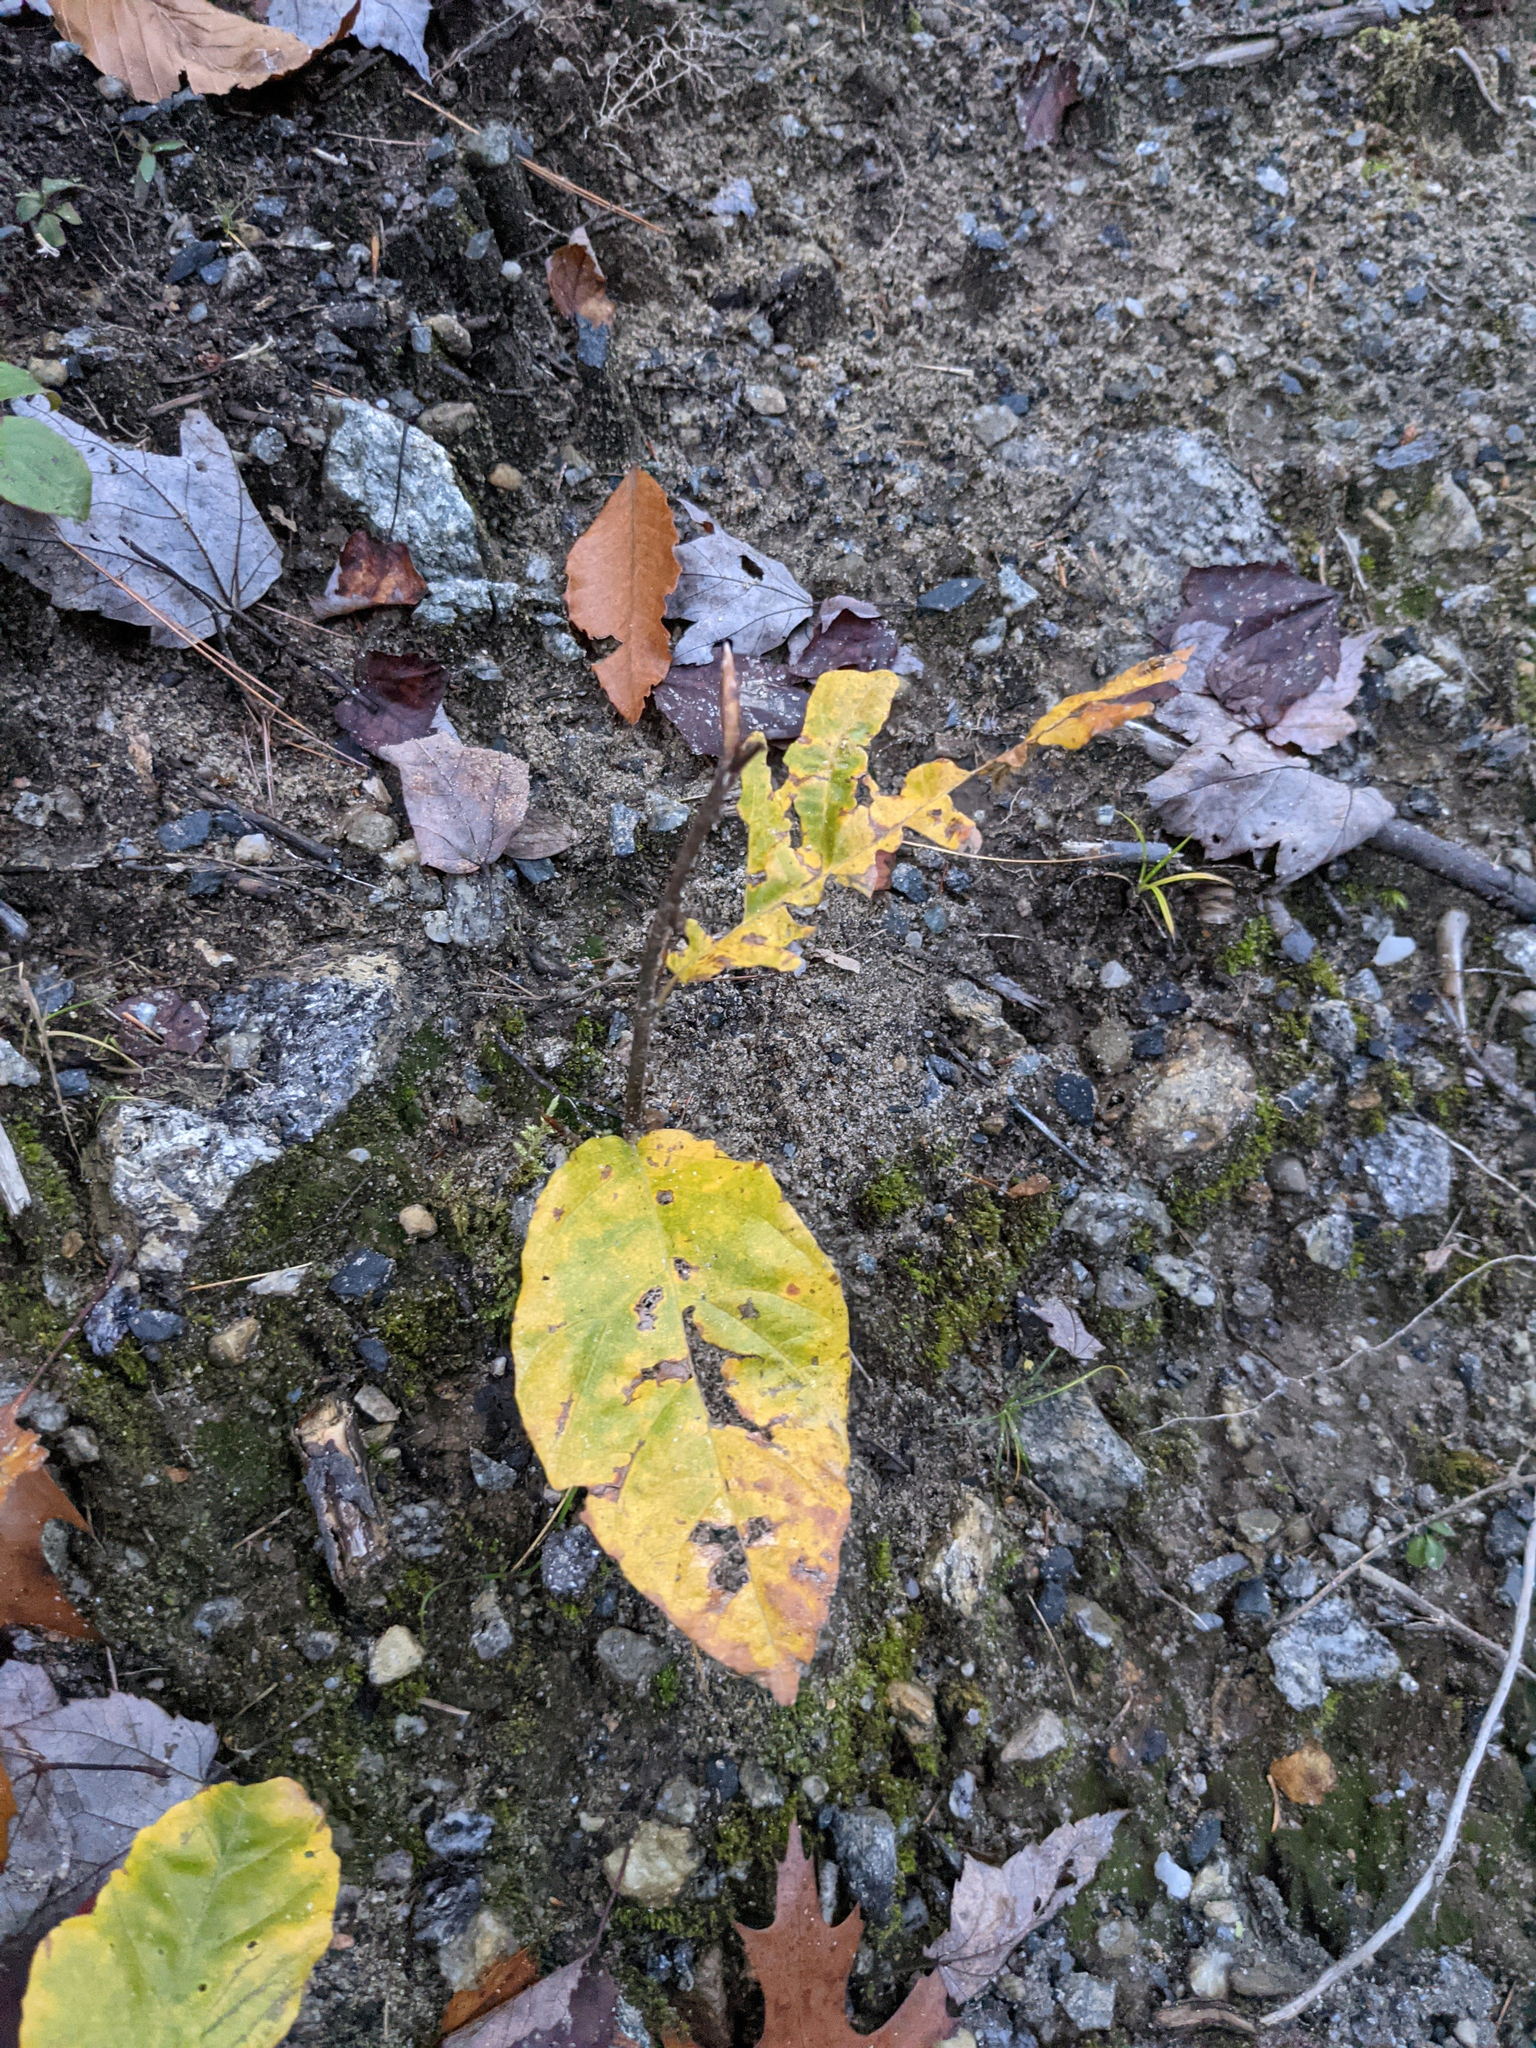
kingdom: Plantae
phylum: Tracheophyta
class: Magnoliopsida
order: Fagales
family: Fagaceae
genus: Fagus
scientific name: Fagus grandifolia
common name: American beech
